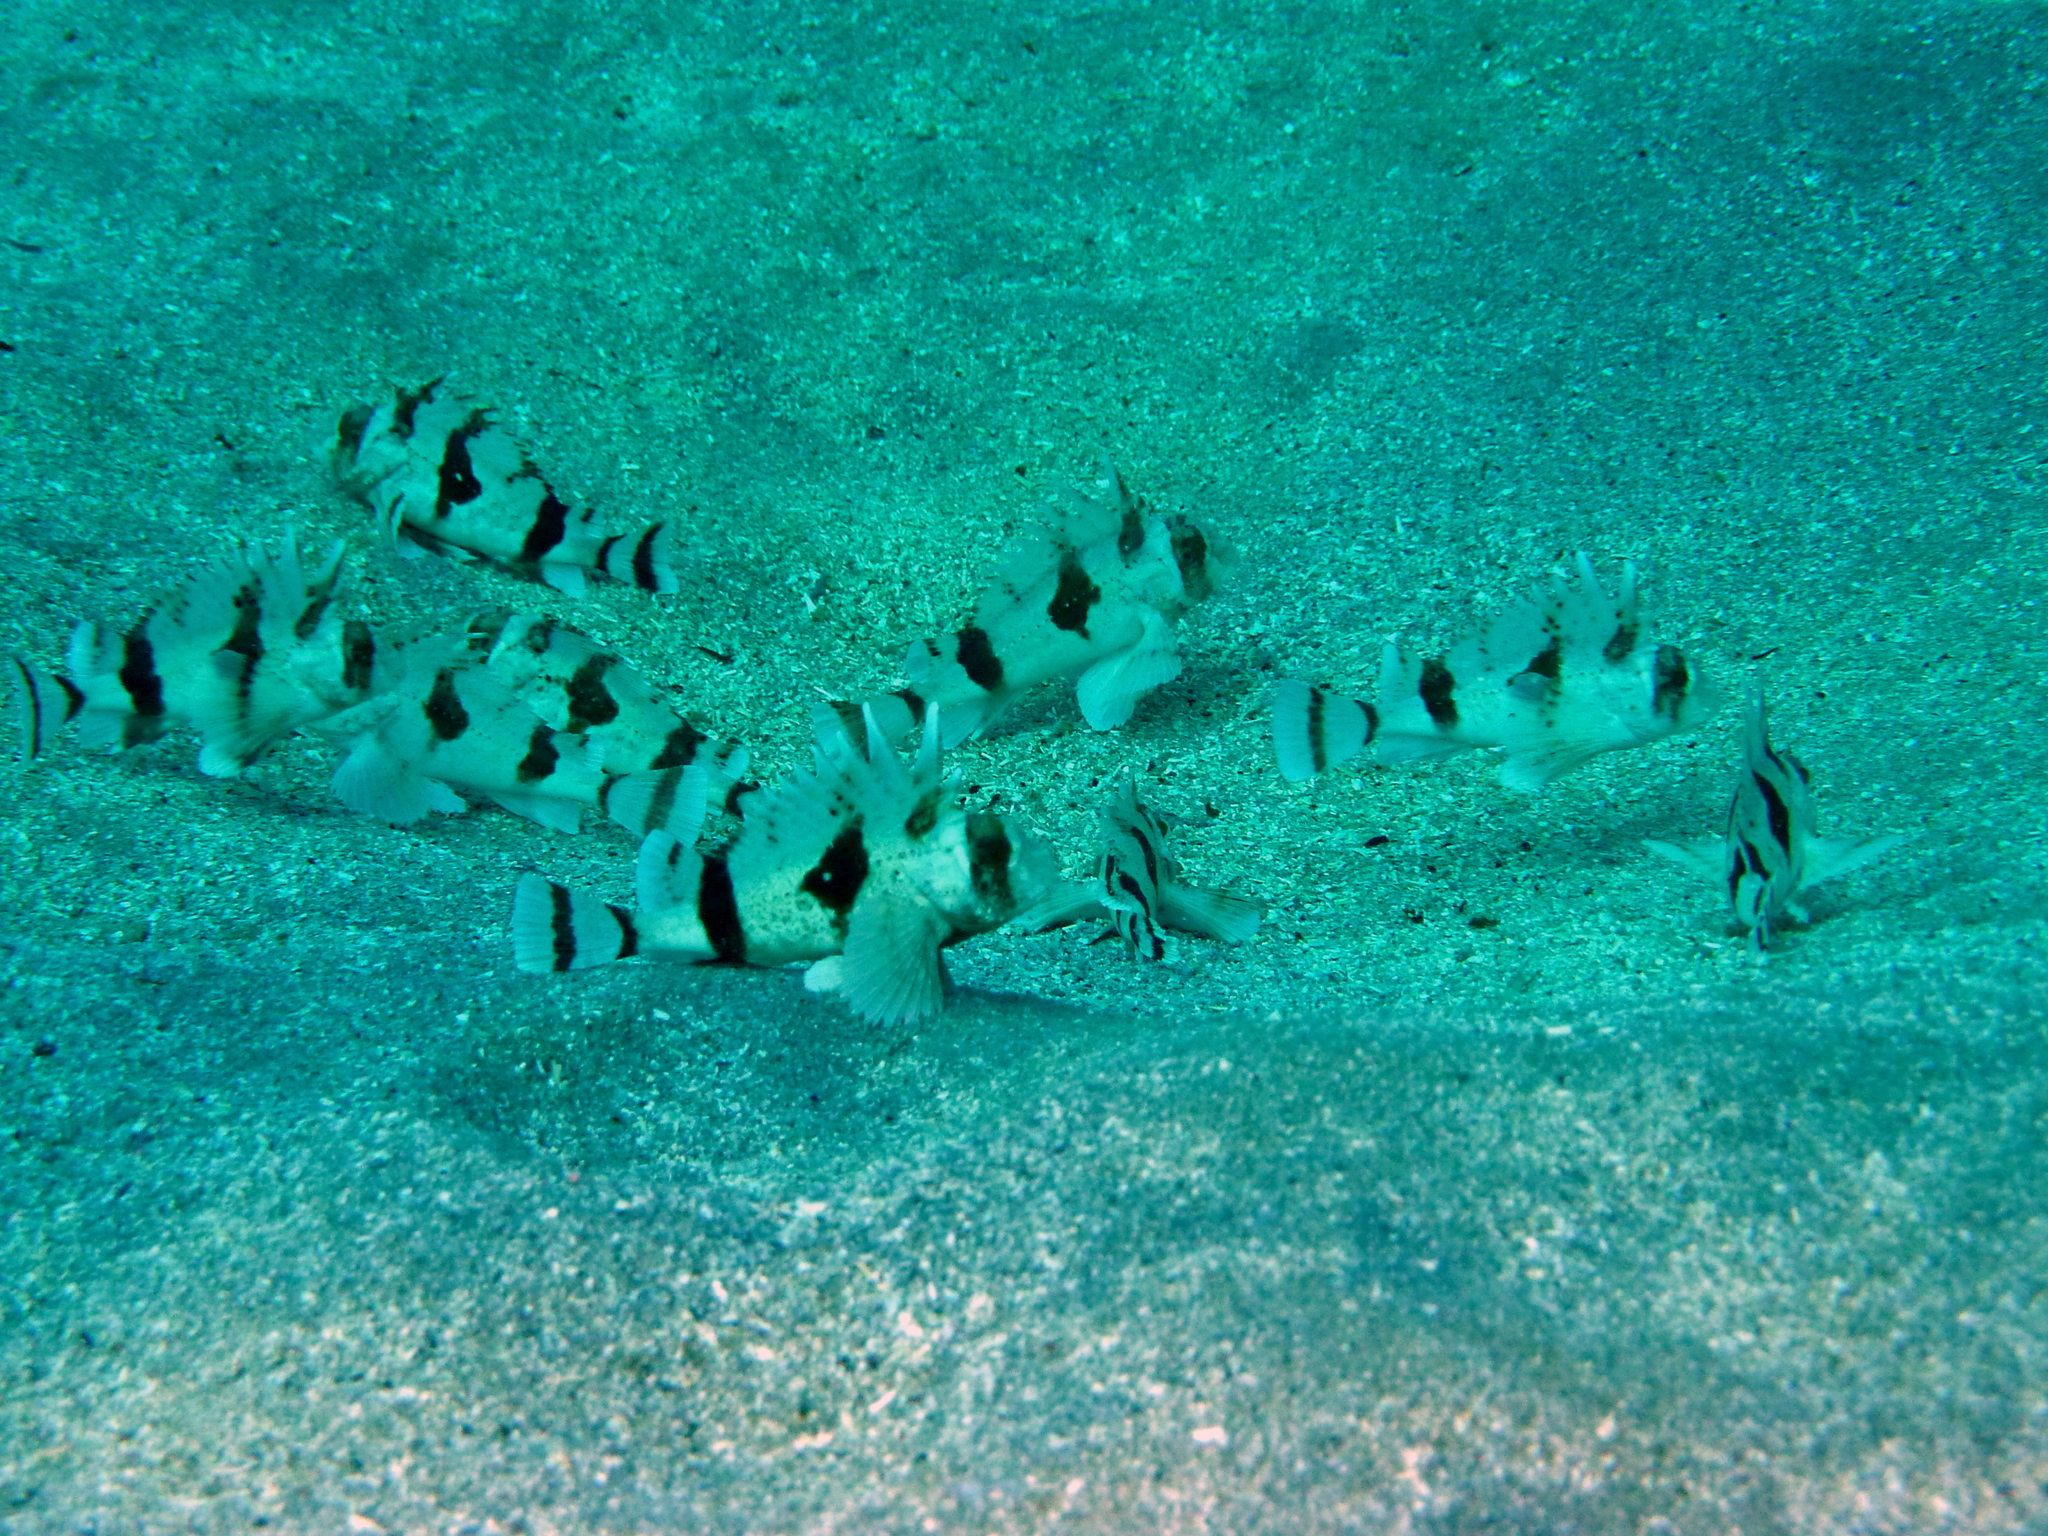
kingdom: Animalia
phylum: Chordata
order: Scorpaeniformes
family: Tetrarogidae
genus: Centropogon
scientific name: Centropogon australis
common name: Fortescue
